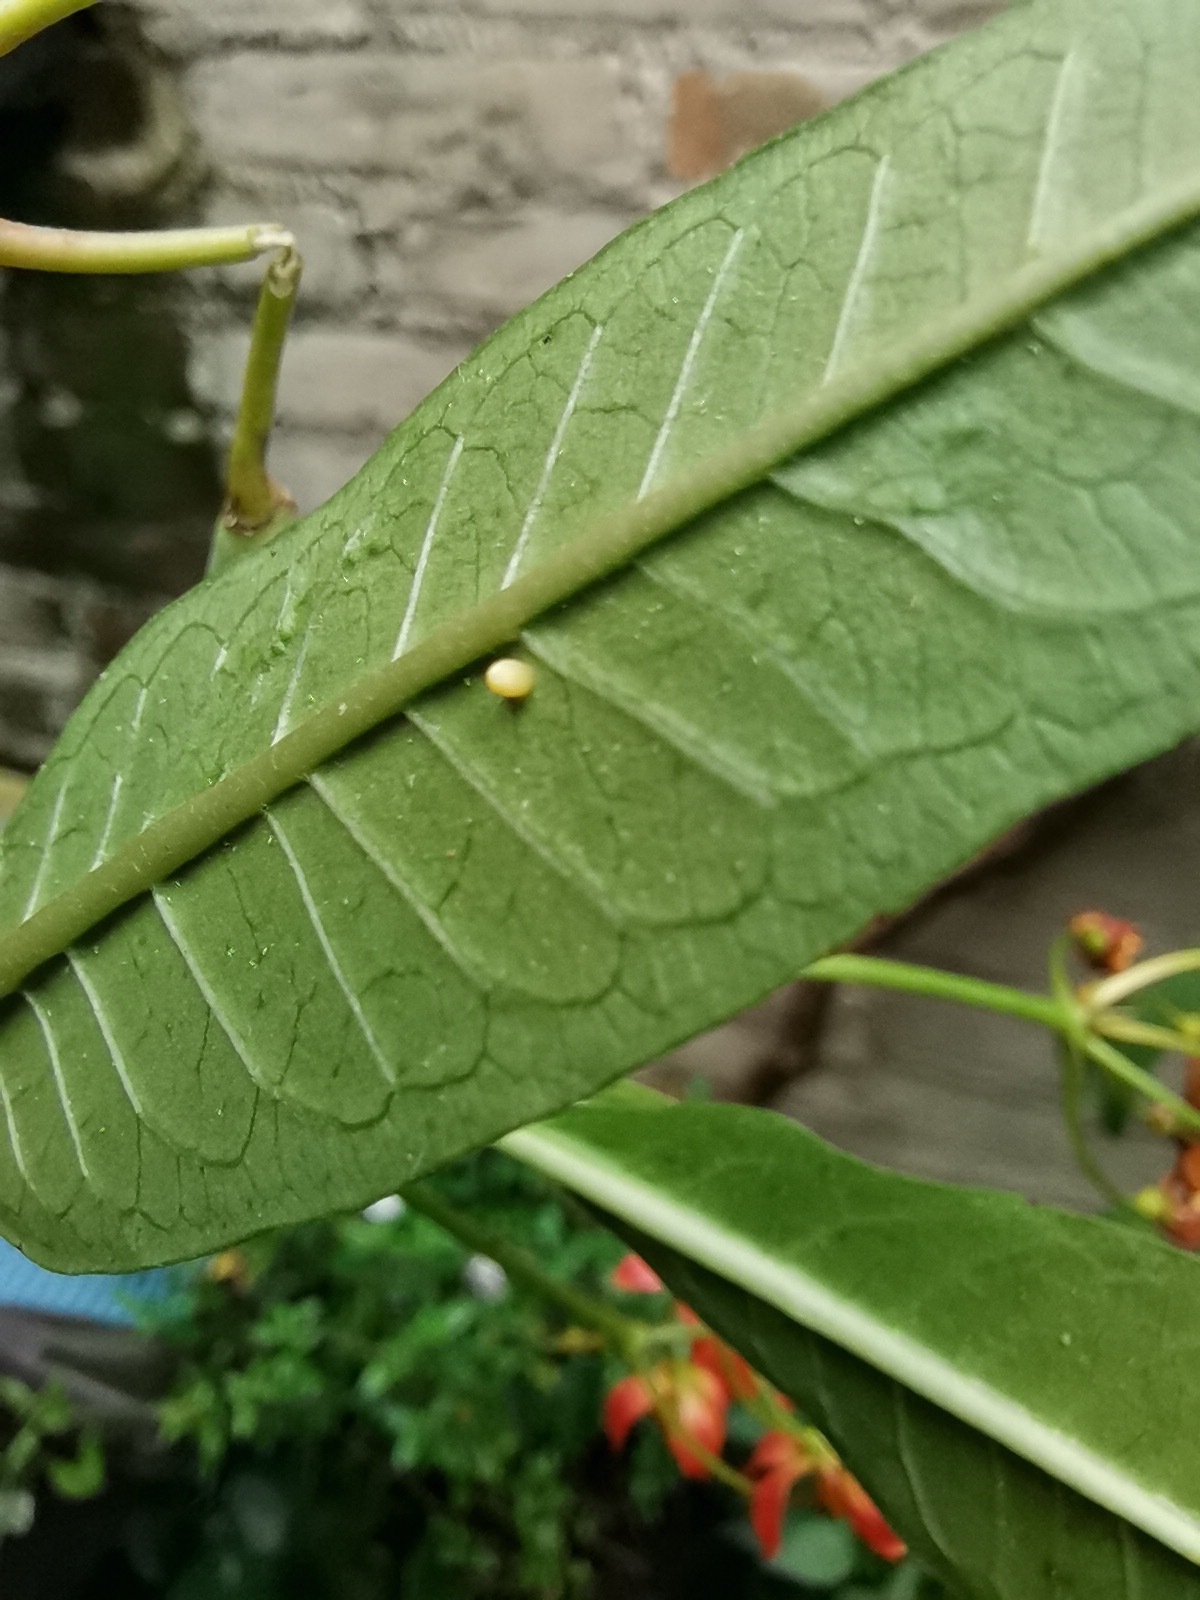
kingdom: Animalia
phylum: Arthropoda
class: Insecta
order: Lepidoptera
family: Nymphalidae
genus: Danaus
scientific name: Danaus plexippus
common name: Monarch
